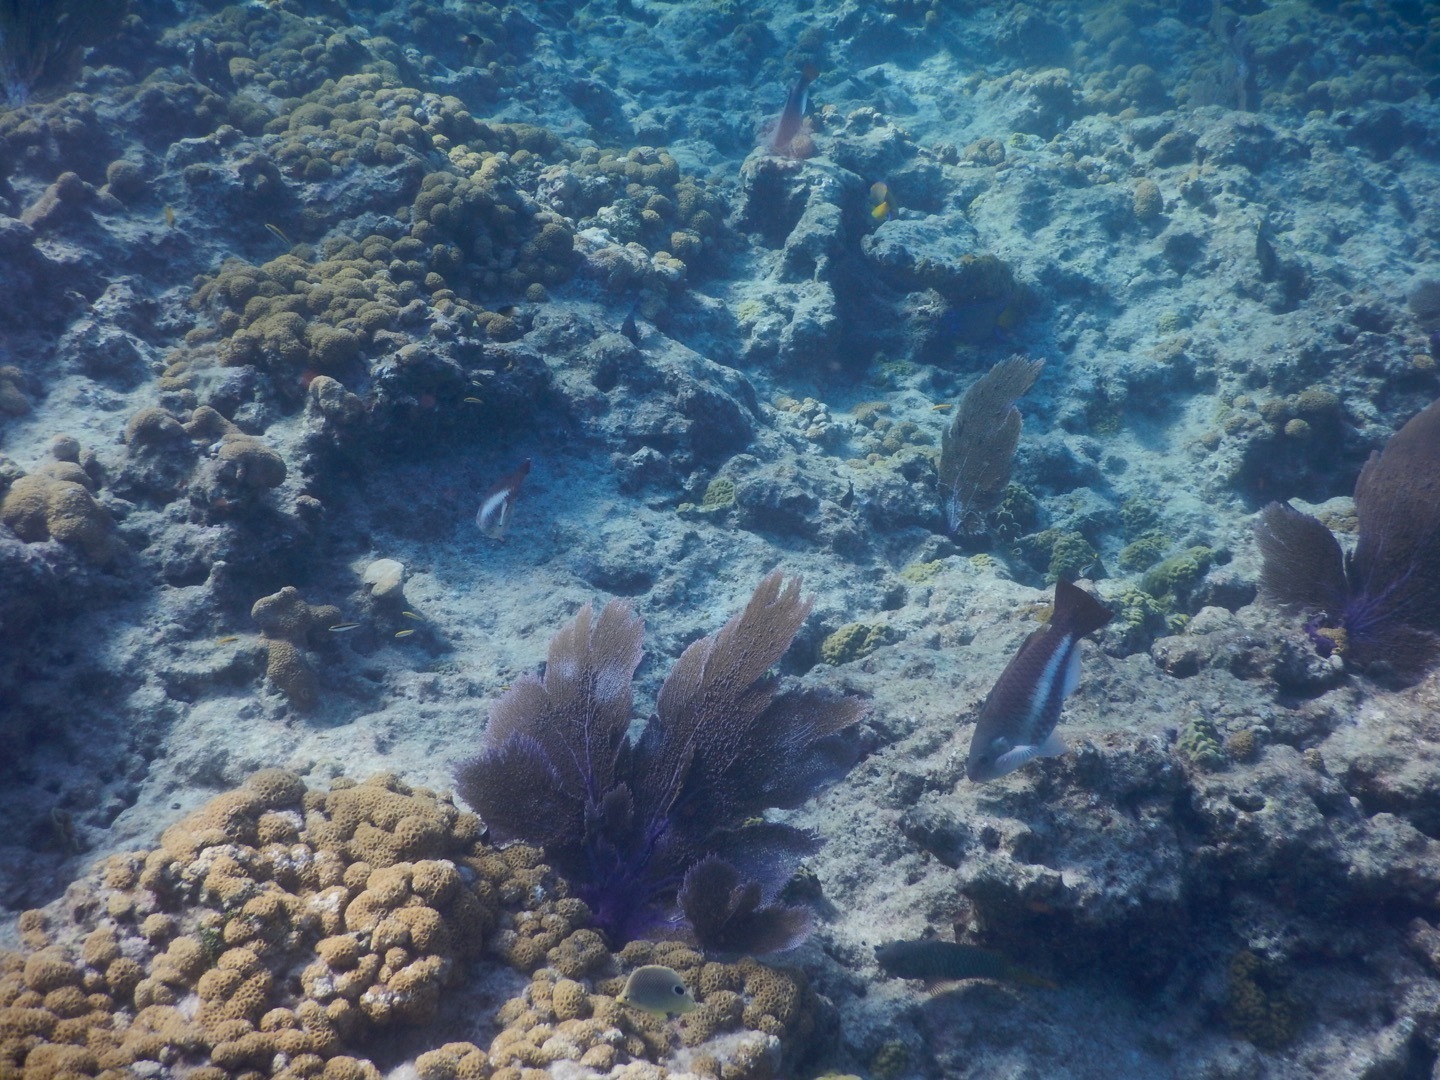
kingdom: Animalia
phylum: Chordata
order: Perciformes
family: Scaridae
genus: Scarus
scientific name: Scarus vetula
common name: Queen parrotfish
